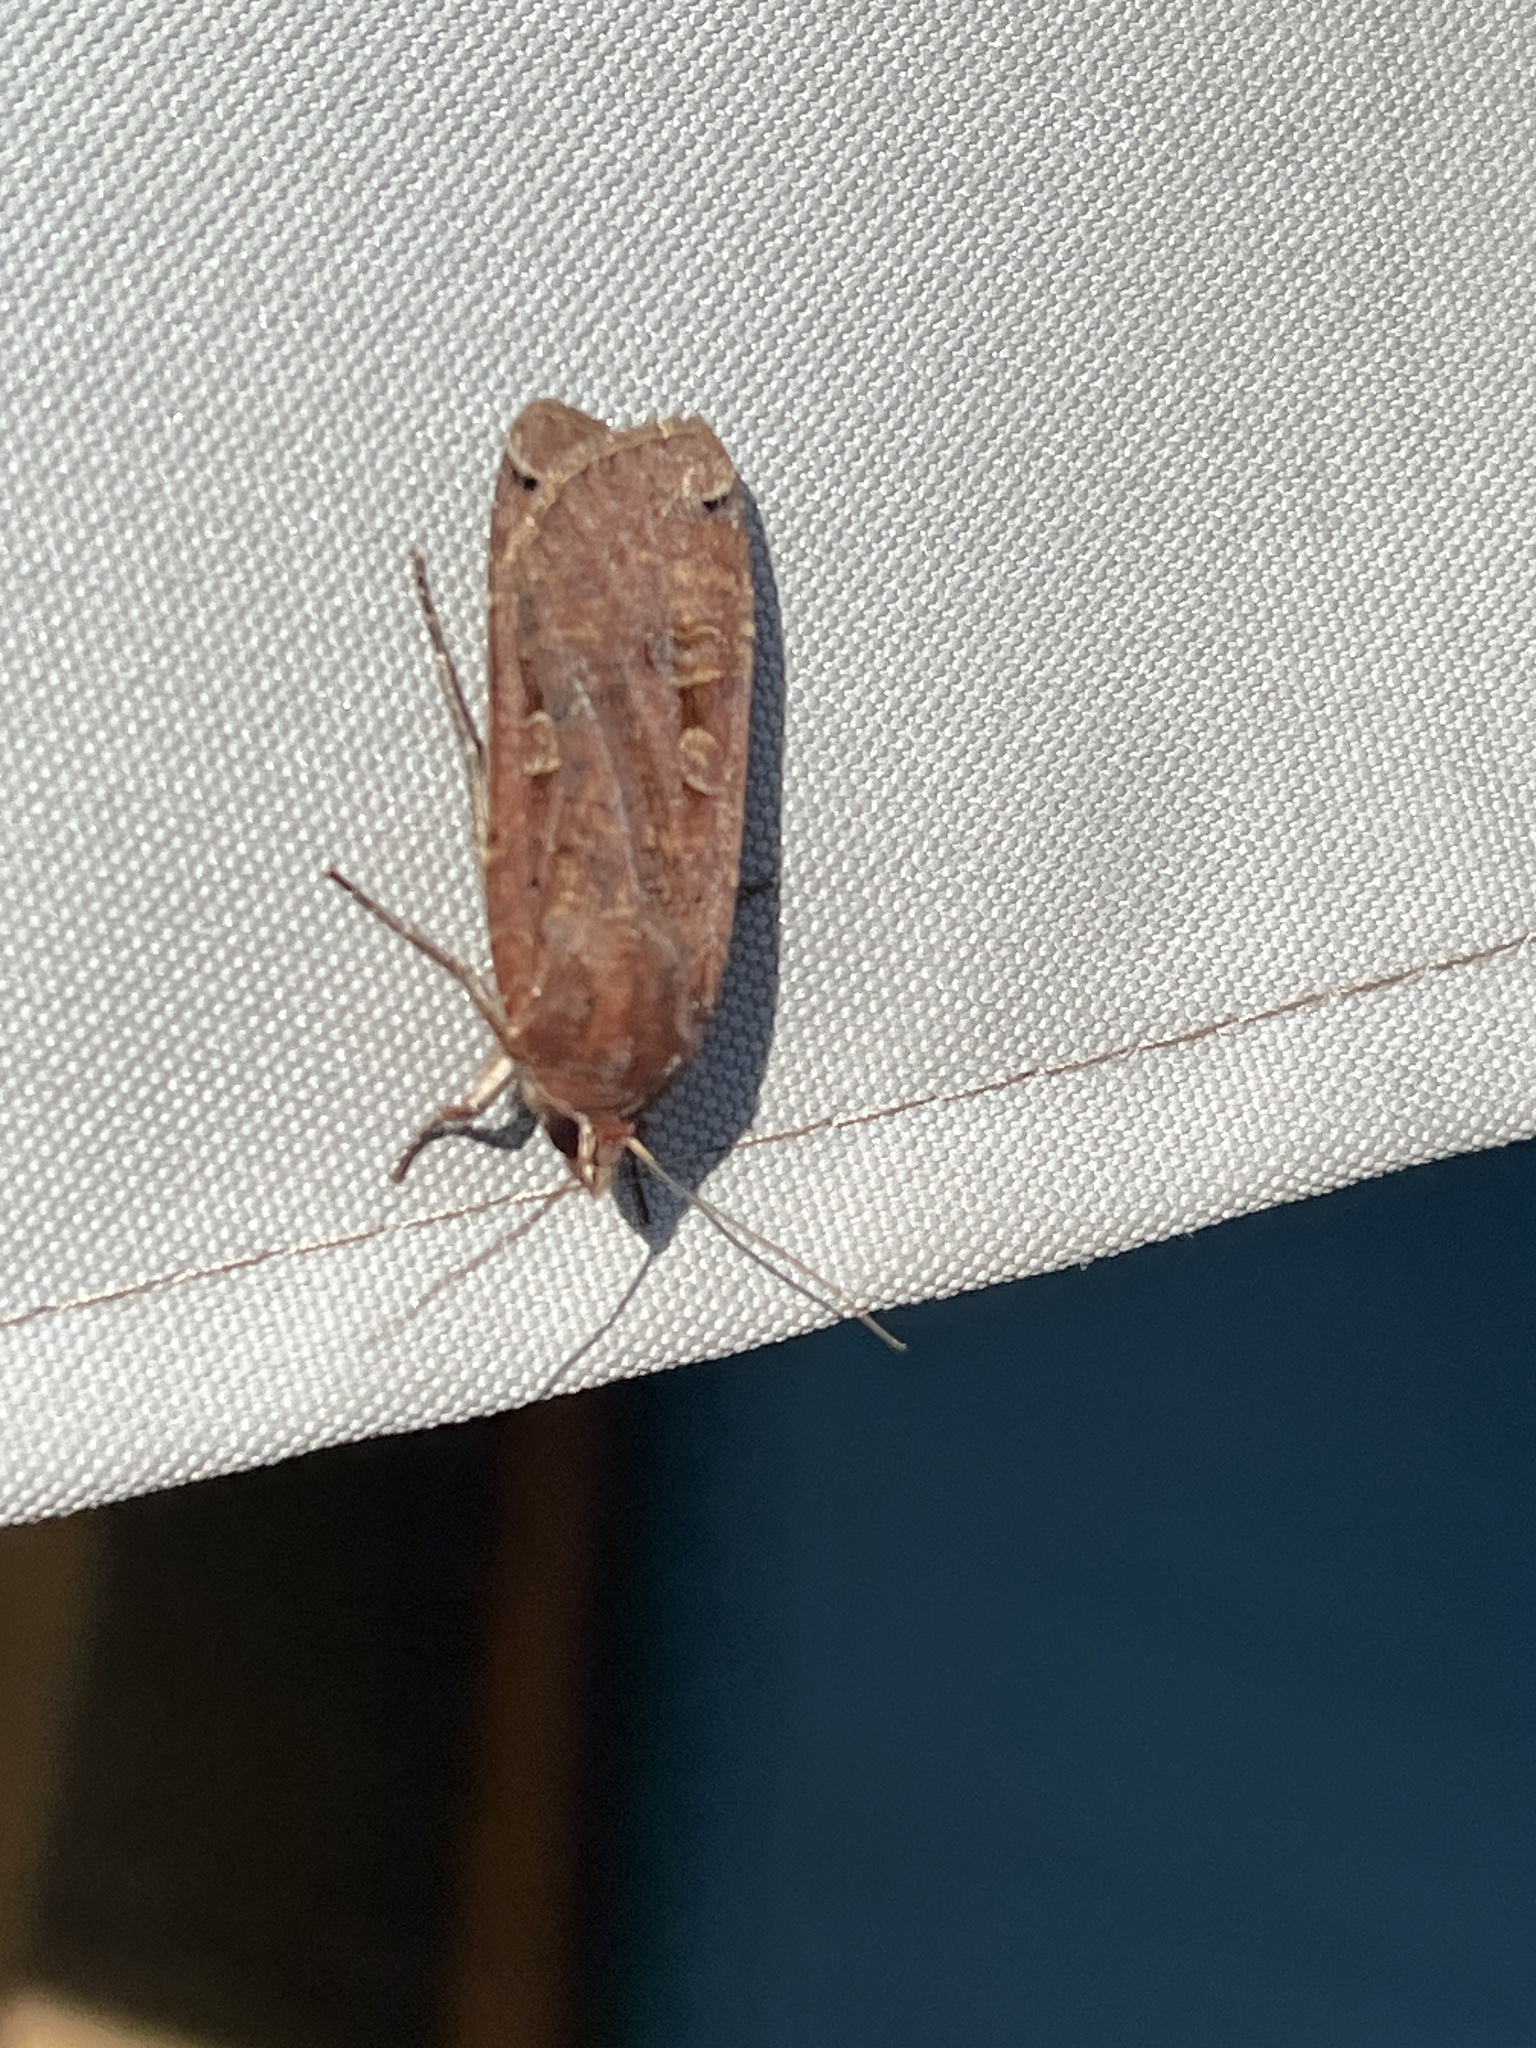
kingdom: Animalia
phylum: Arthropoda
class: Insecta
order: Lepidoptera
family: Noctuidae
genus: Noctua
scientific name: Noctua pronuba
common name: Large yellow underwing
